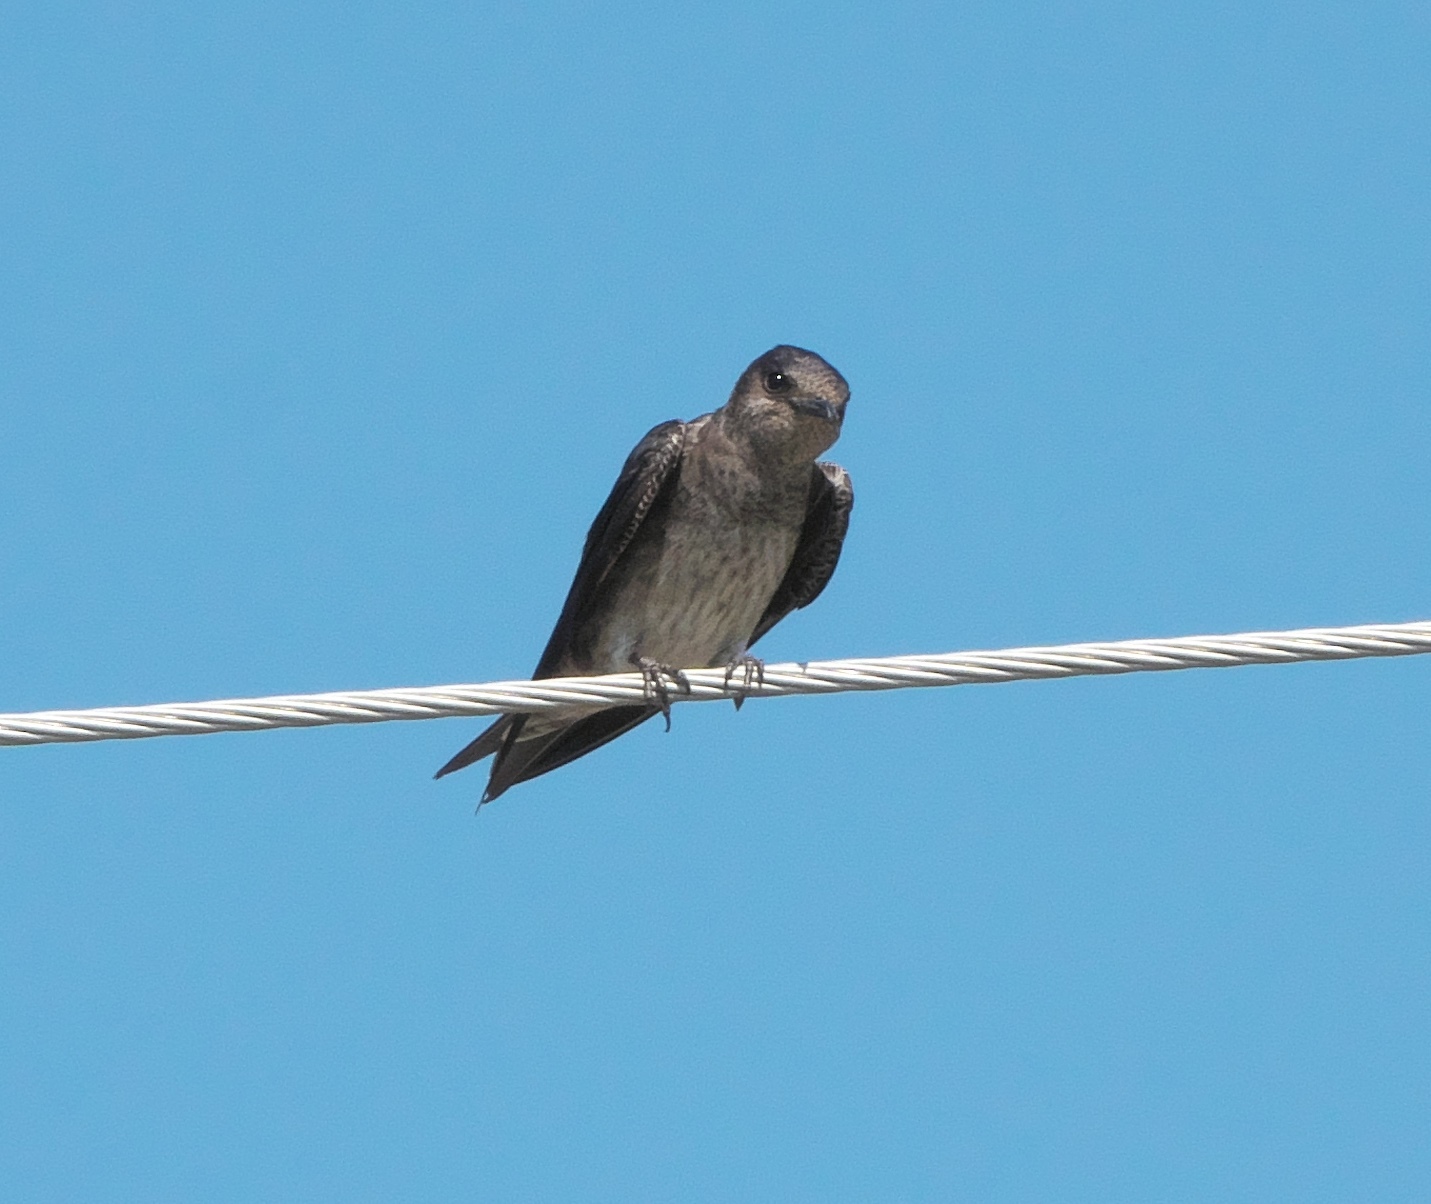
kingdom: Animalia
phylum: Chordata
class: Aves
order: Passeriformes
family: Hirundinidae
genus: Progne
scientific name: Progne subis
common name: Purple martin
